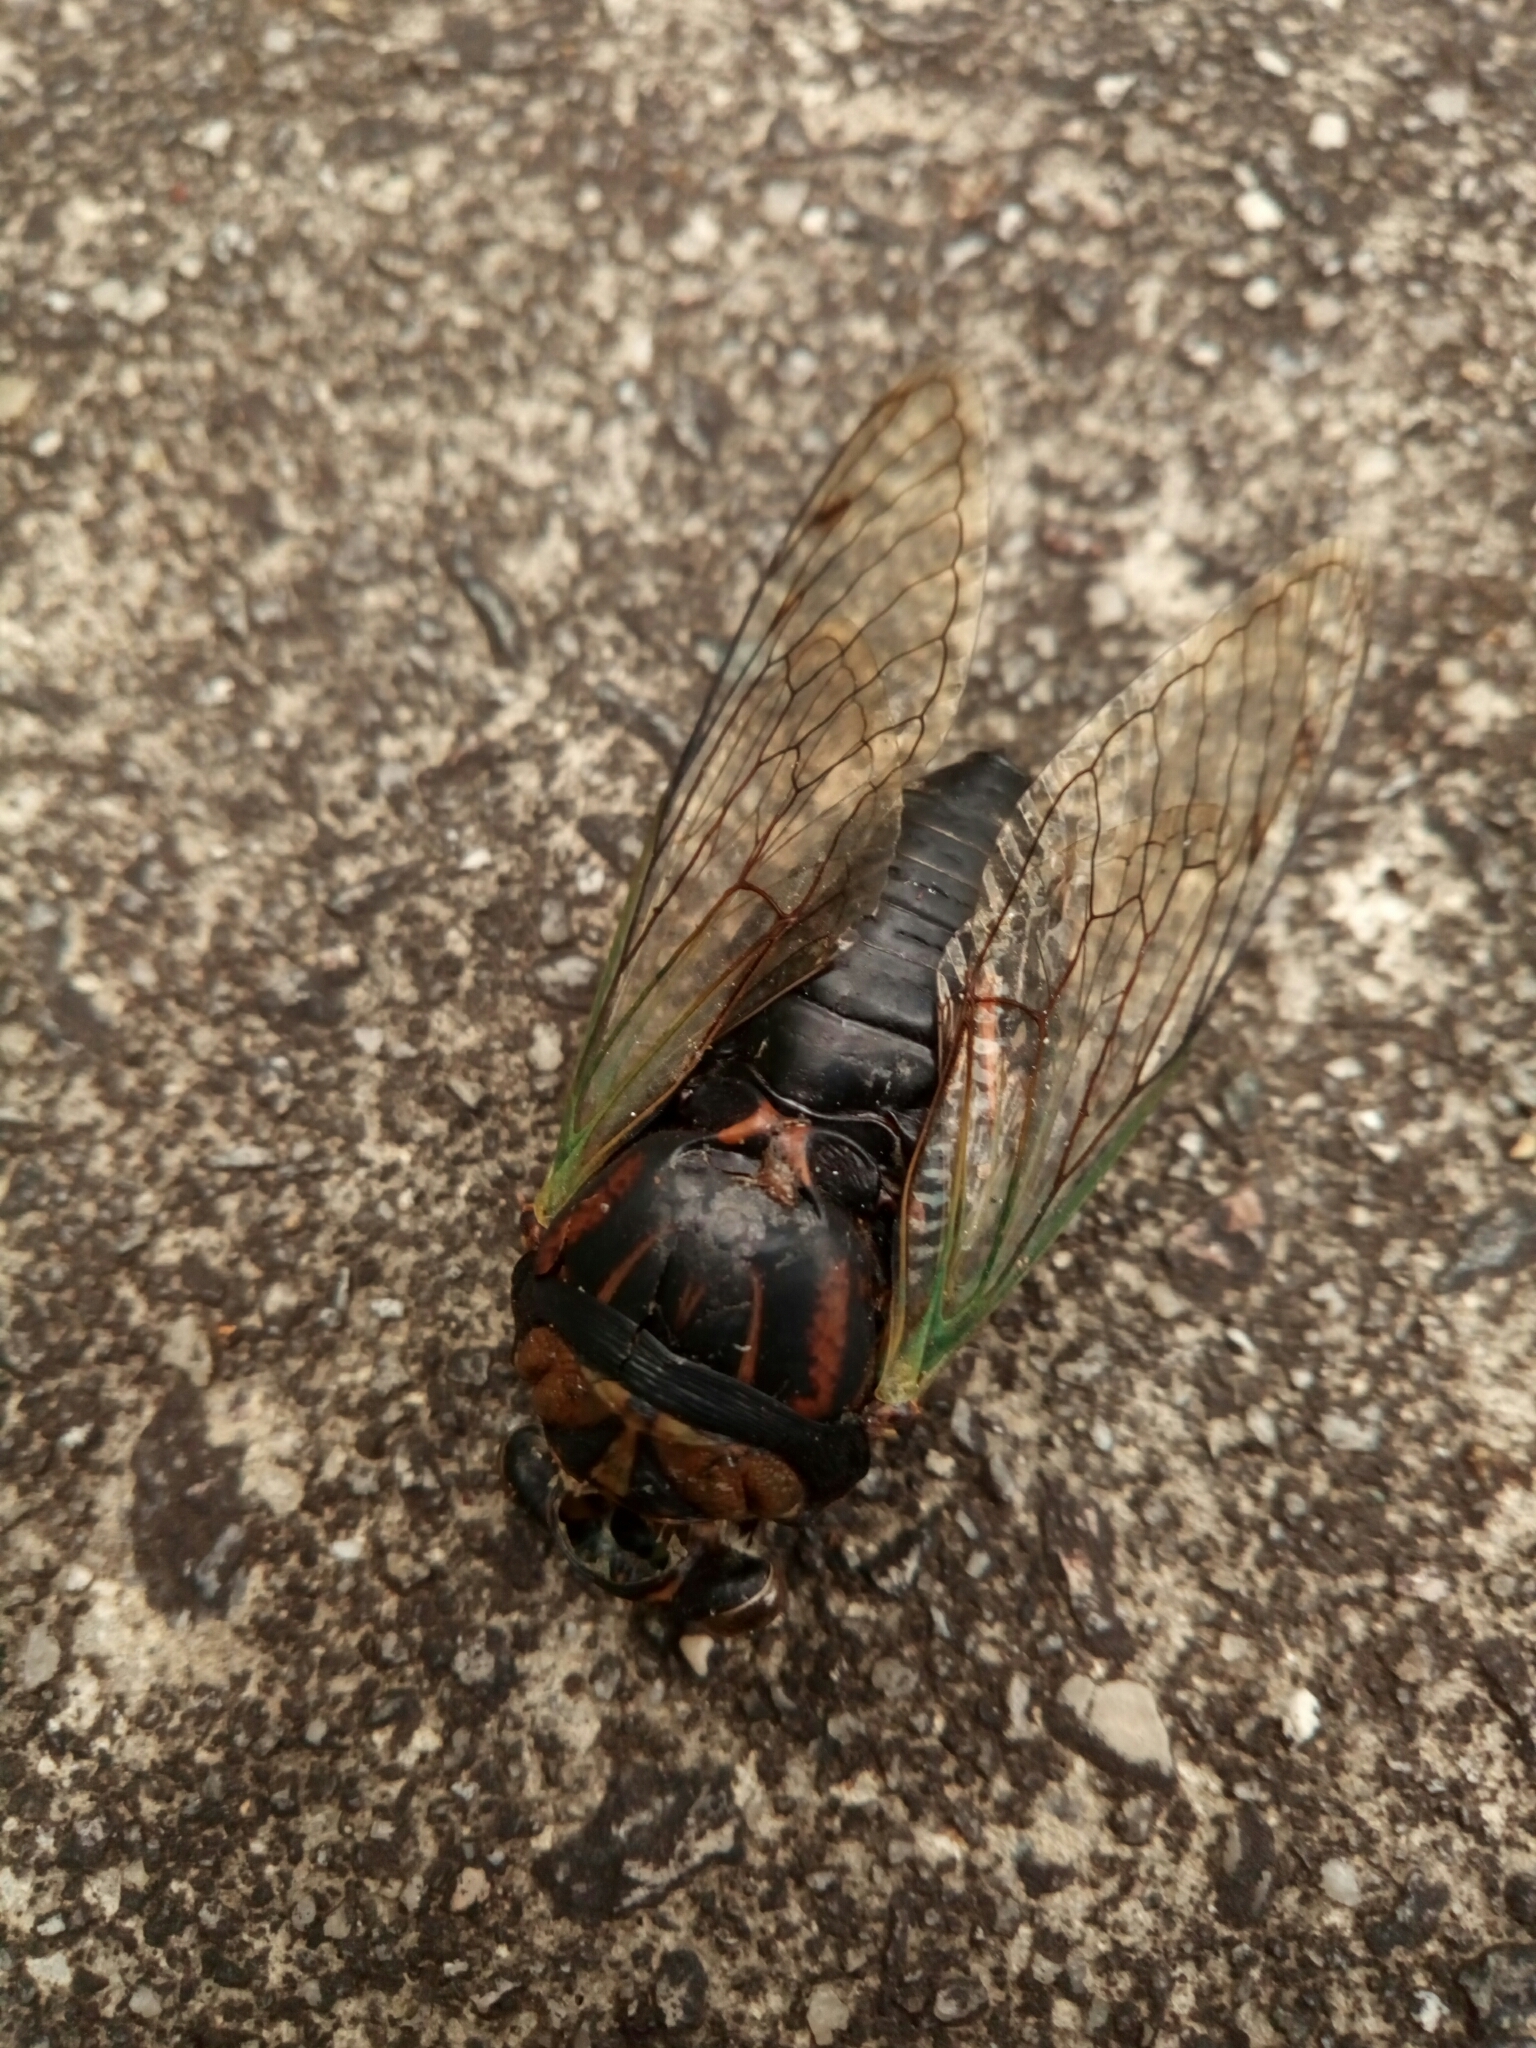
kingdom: Animalia
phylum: Arthropoda
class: Insecta
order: Hemiptera
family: Cicadidae
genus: Neotibicen
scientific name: Neotibicen tibicen
